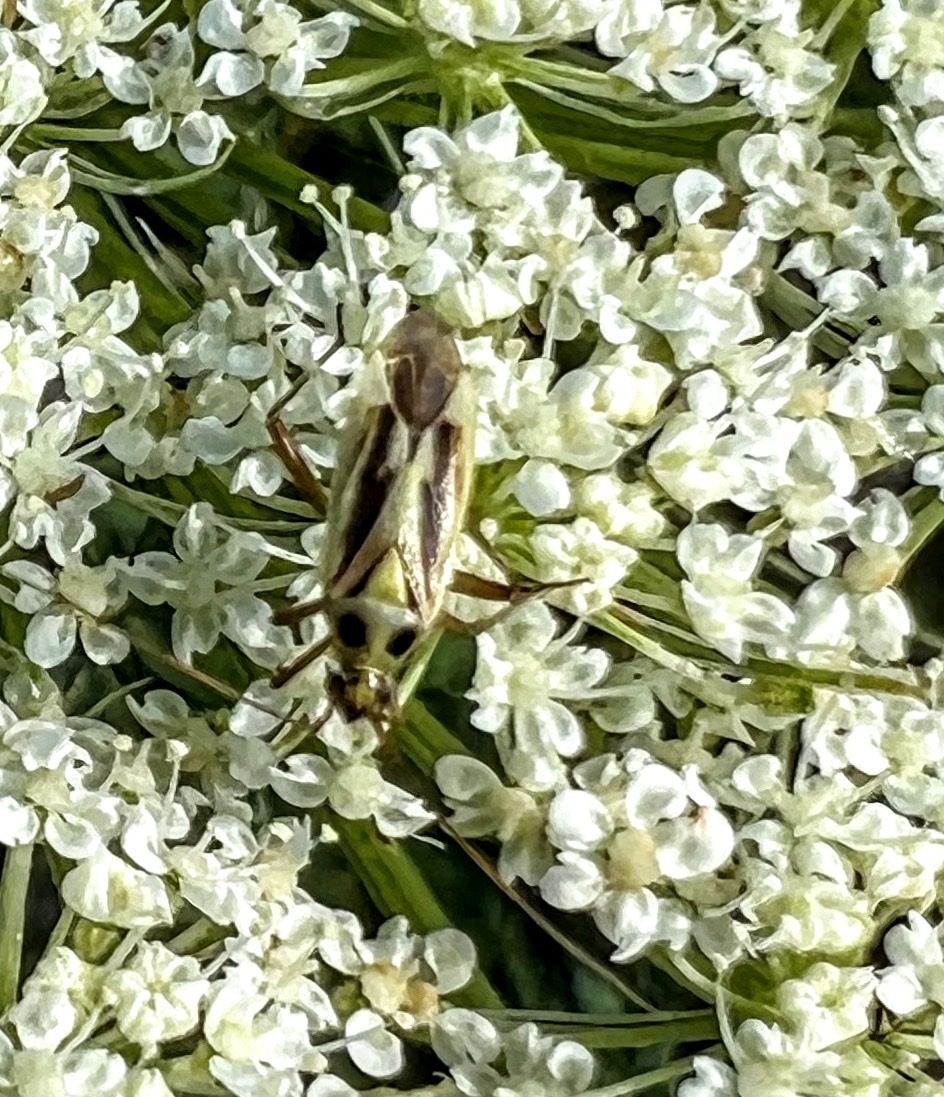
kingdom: Animalia
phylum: Arthropoda
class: Insecta
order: Hemiptera
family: Miridae
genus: Stenotus
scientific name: Stenotus binotatus
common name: Plant bug
